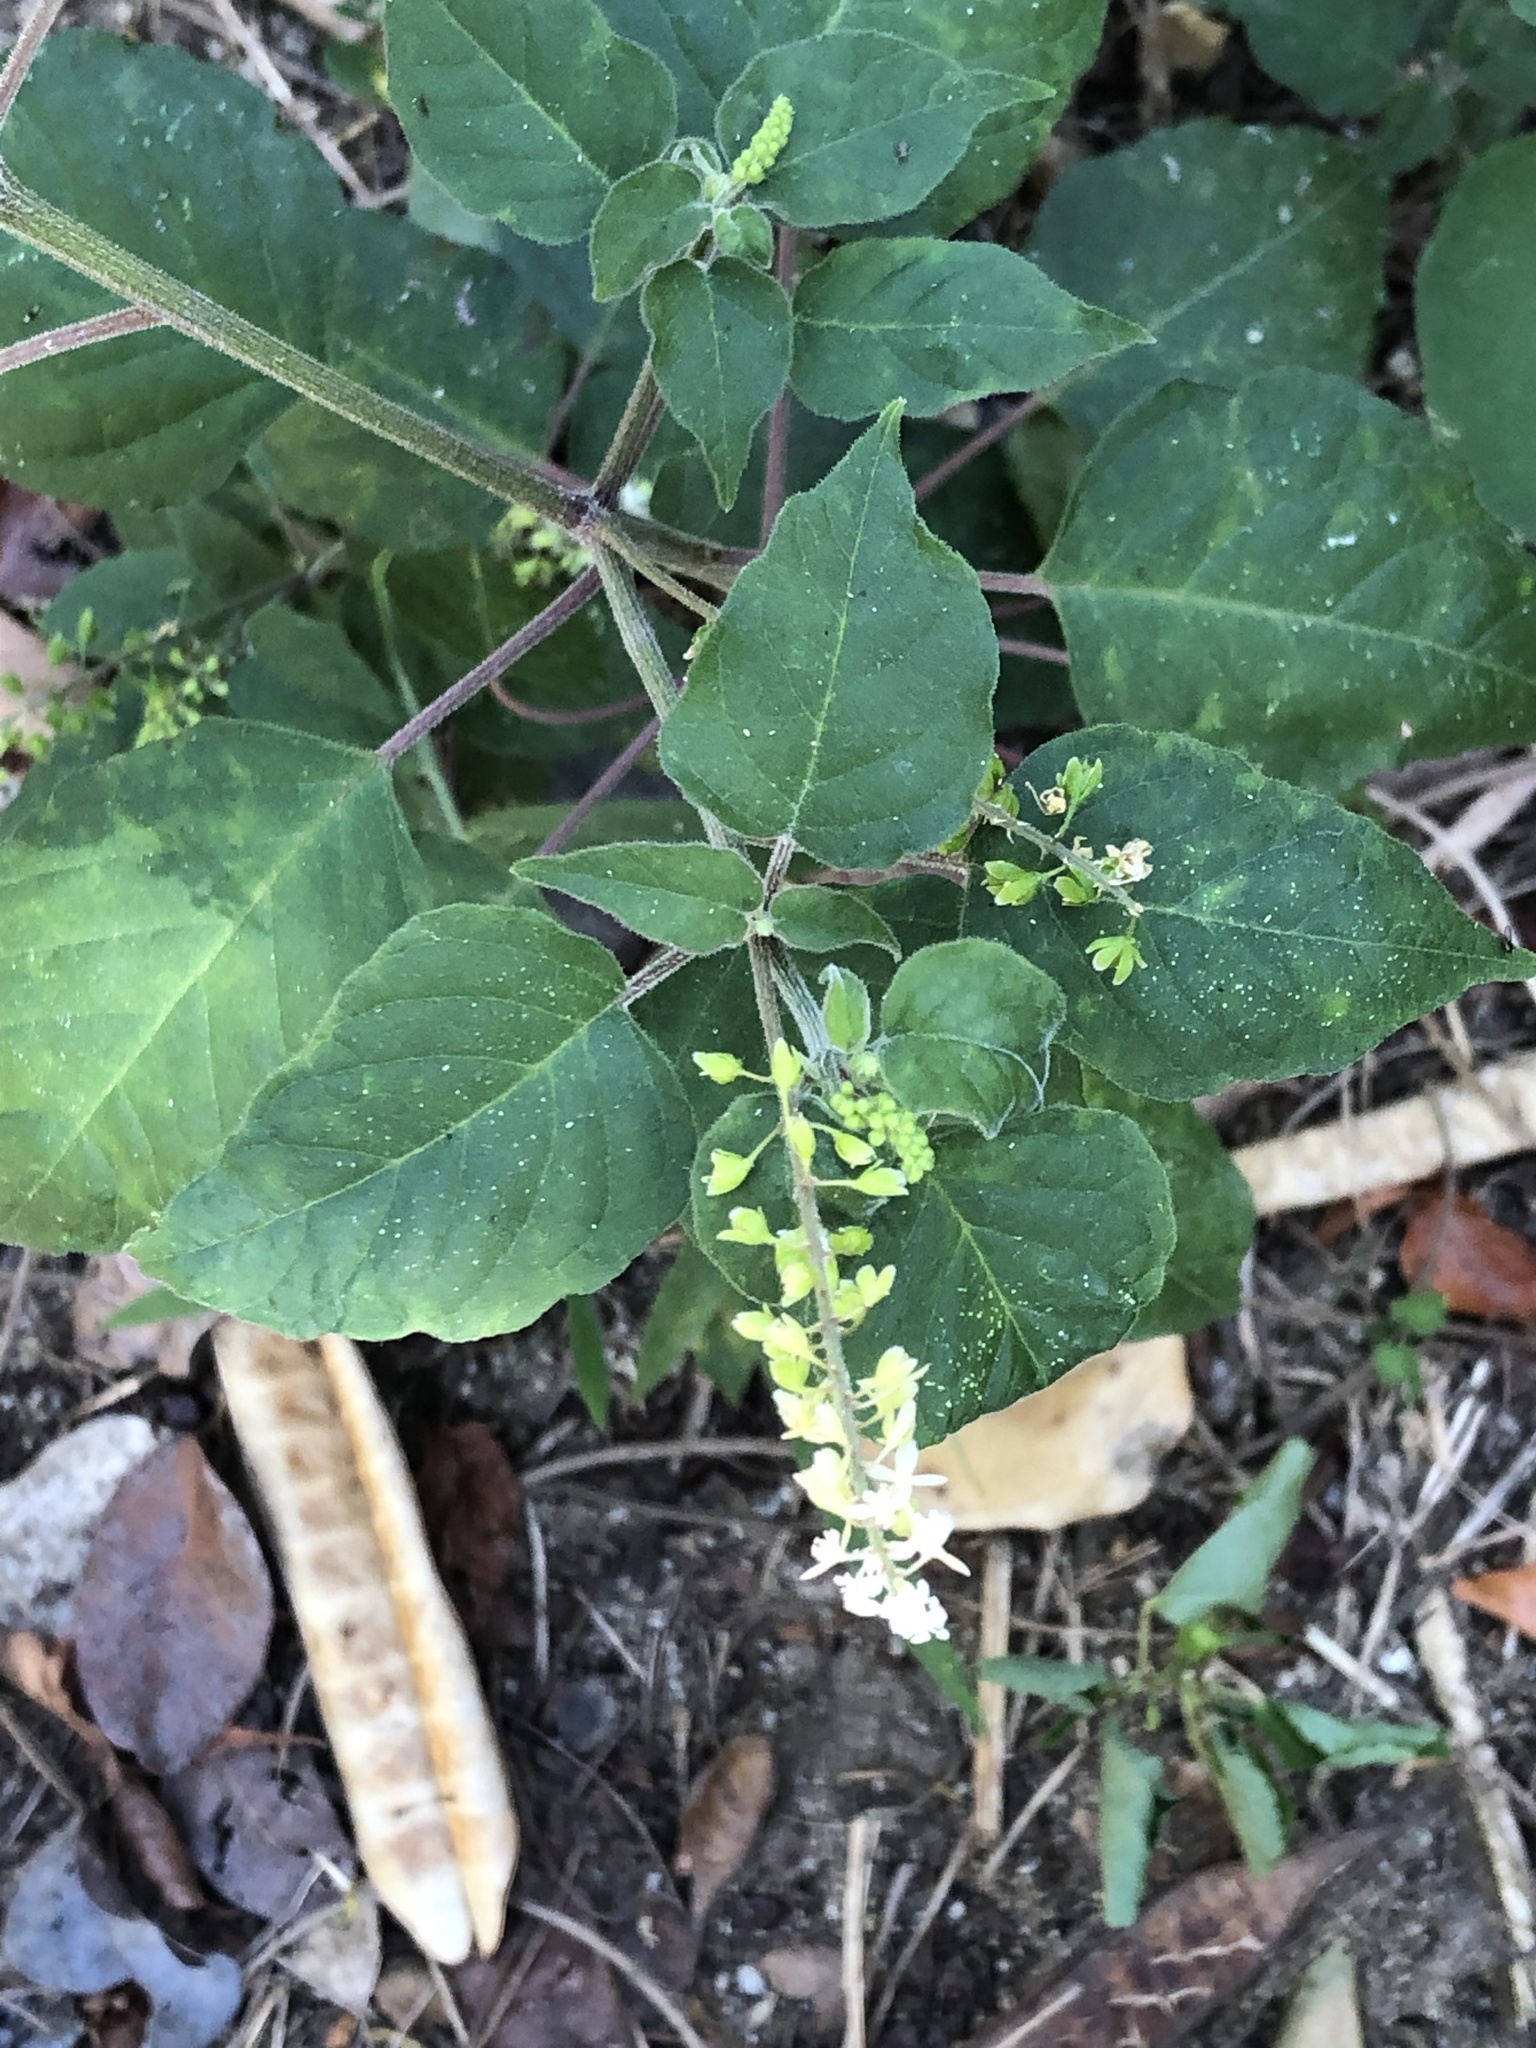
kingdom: Plantae
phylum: Tracheophyta
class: Magnoliopsida
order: Caryophyllales
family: Phytolaccaceae
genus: Rivina
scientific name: Rivina humilis
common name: Rougeplant
